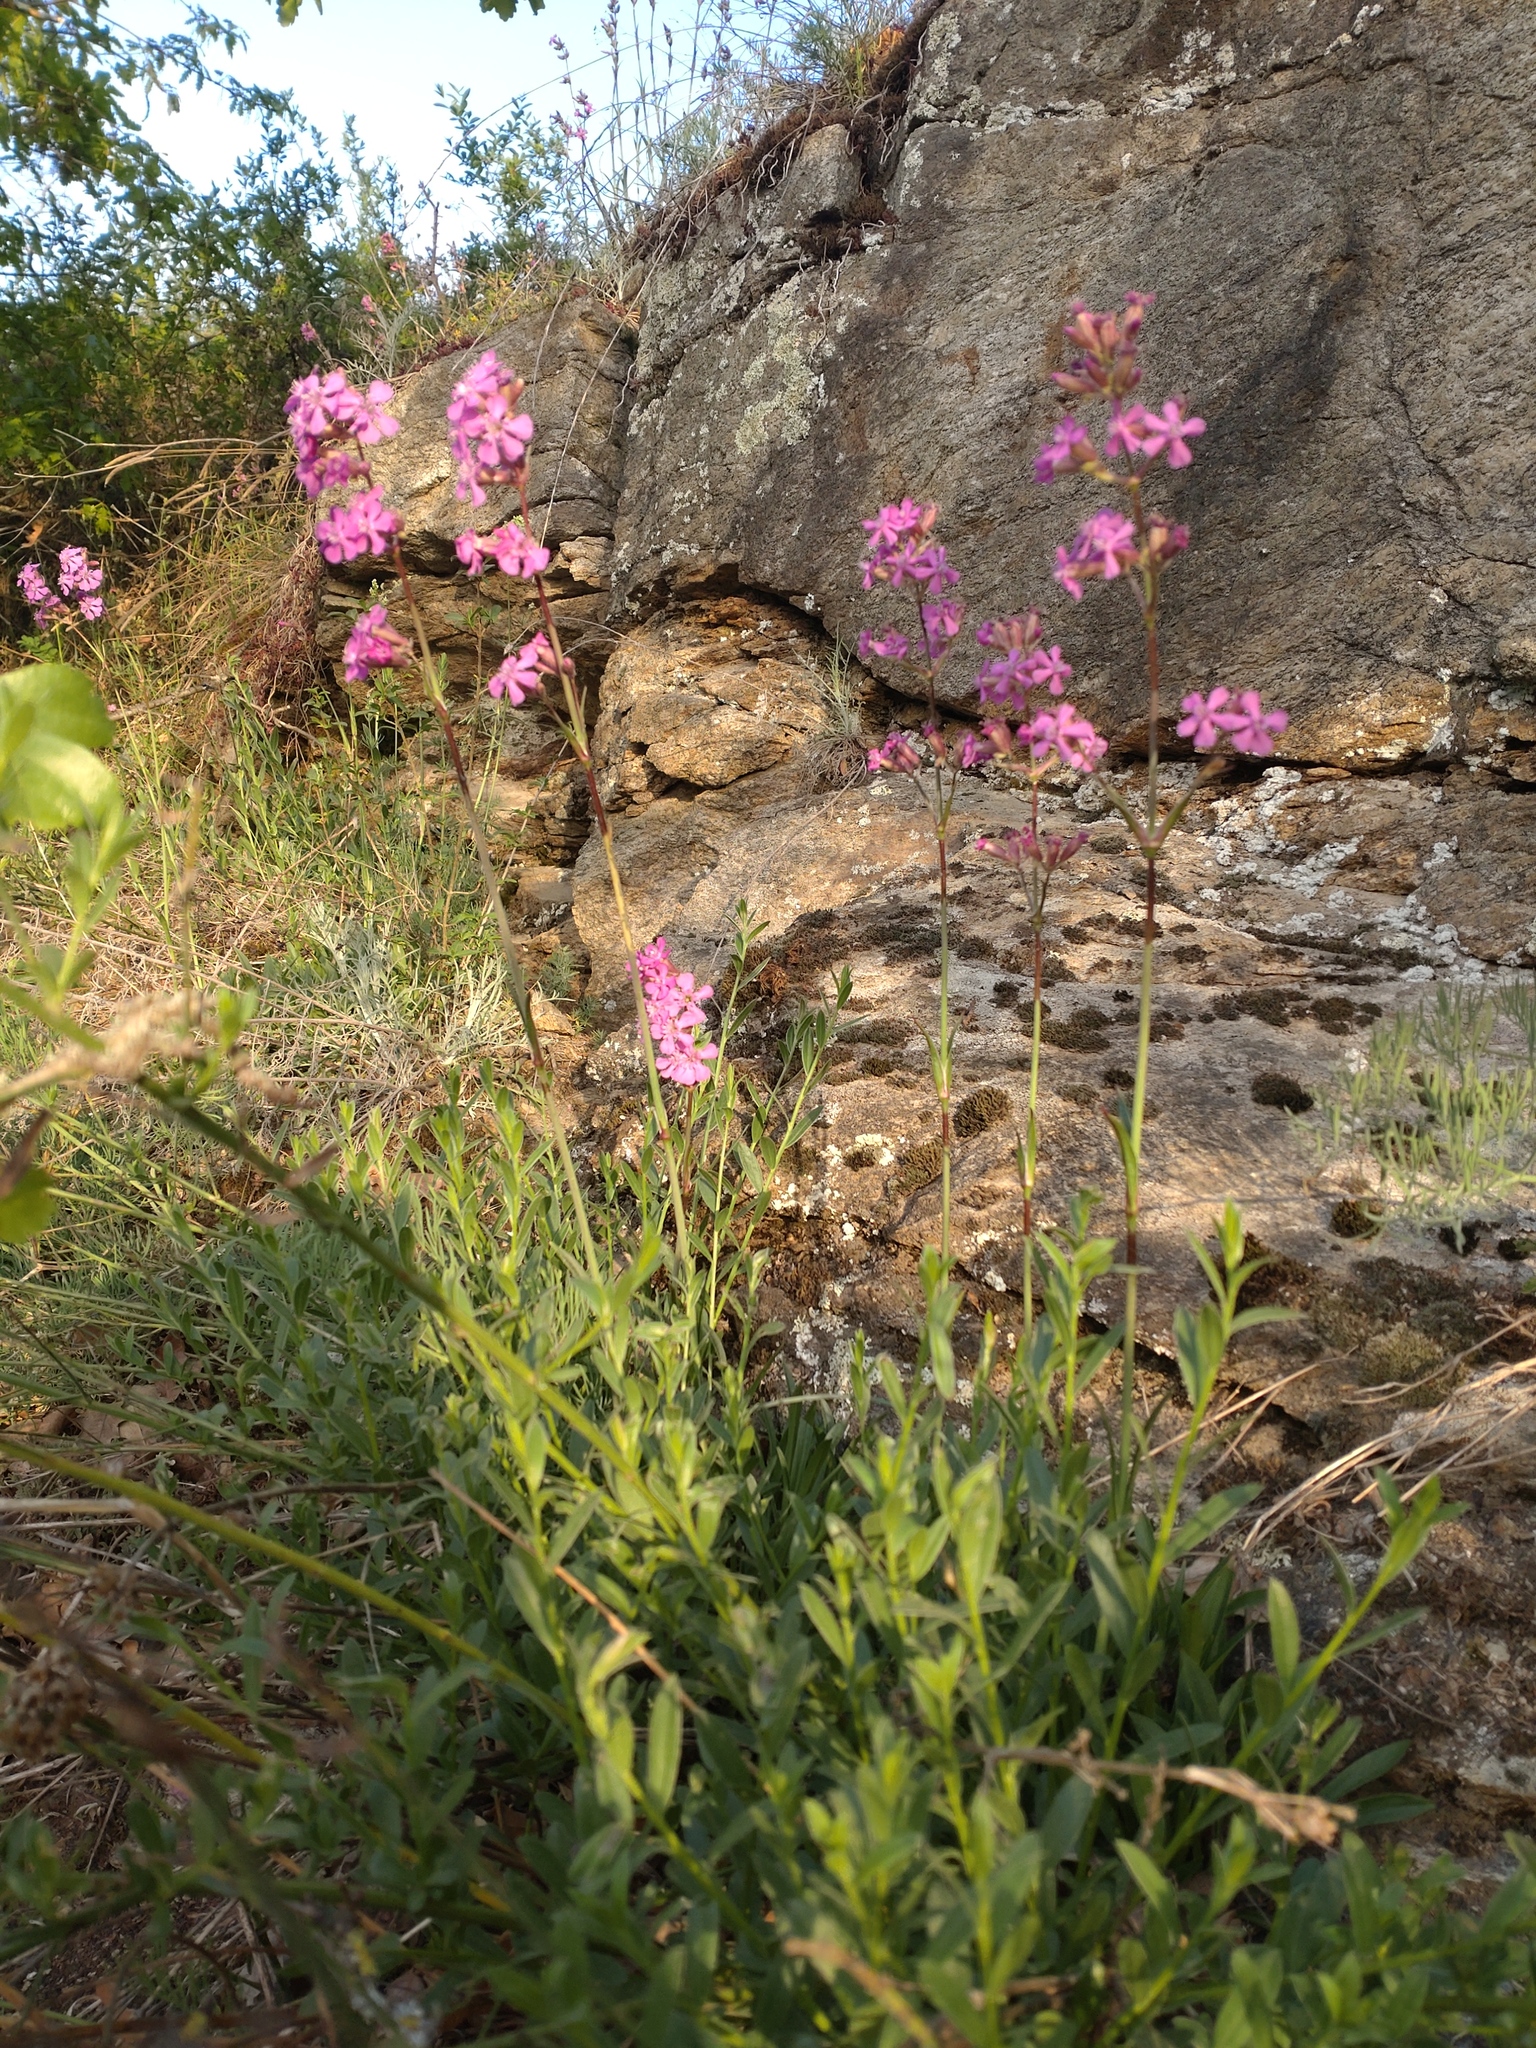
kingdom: Plantae
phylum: Tracheophyta
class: Magnoliopsida
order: Caryophyllales
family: Caryophyllaceae
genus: Viscaria
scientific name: Viscaria vulgaris
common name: Clammy campion
